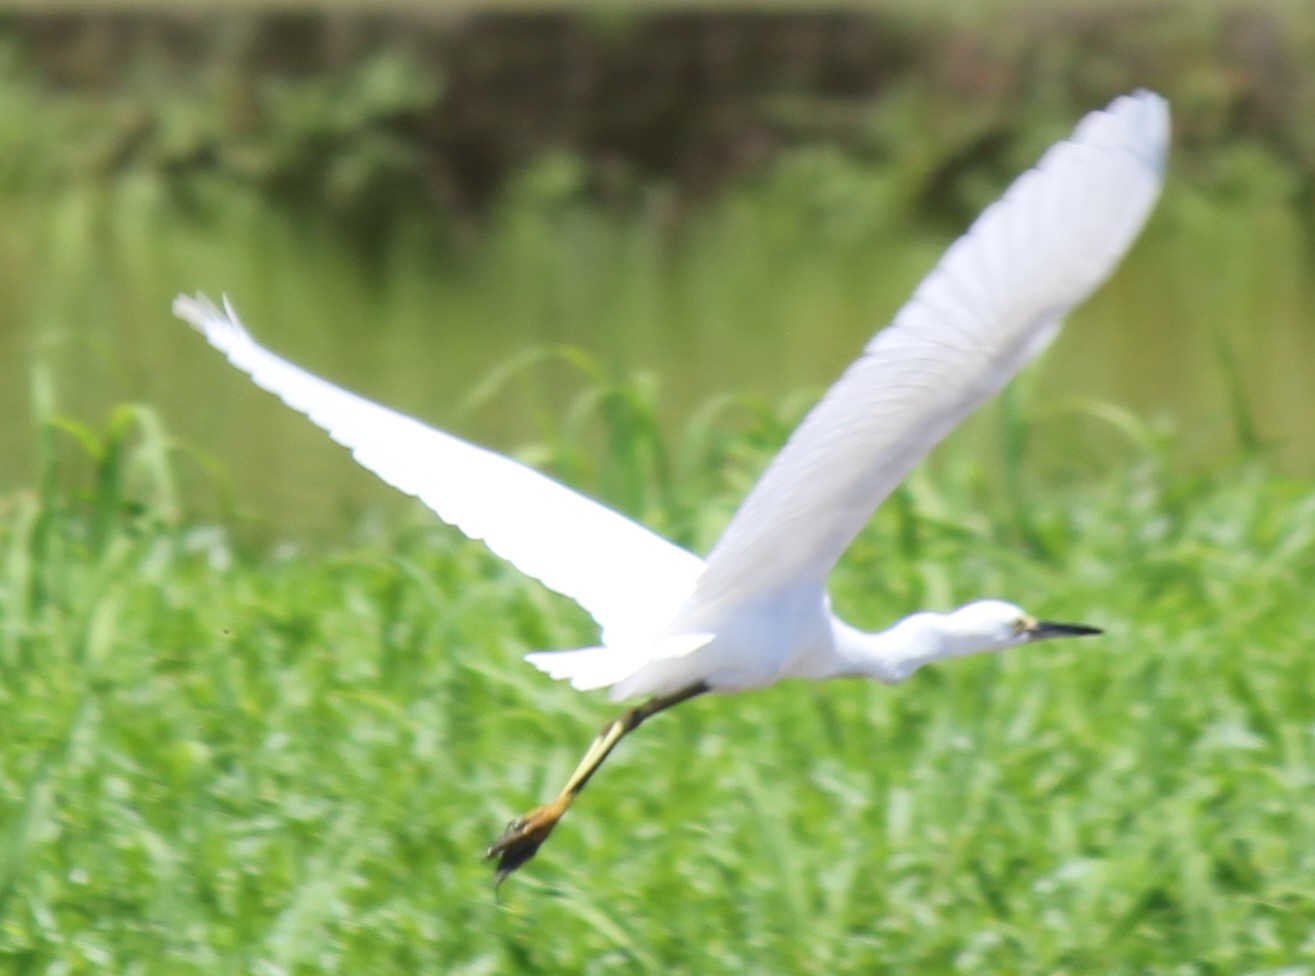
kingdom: Animalia
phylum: Chordata
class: Aves
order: Pelecaniformes
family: Ardeidae
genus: Egretta
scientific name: Egretta thula
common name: Snowy egret
